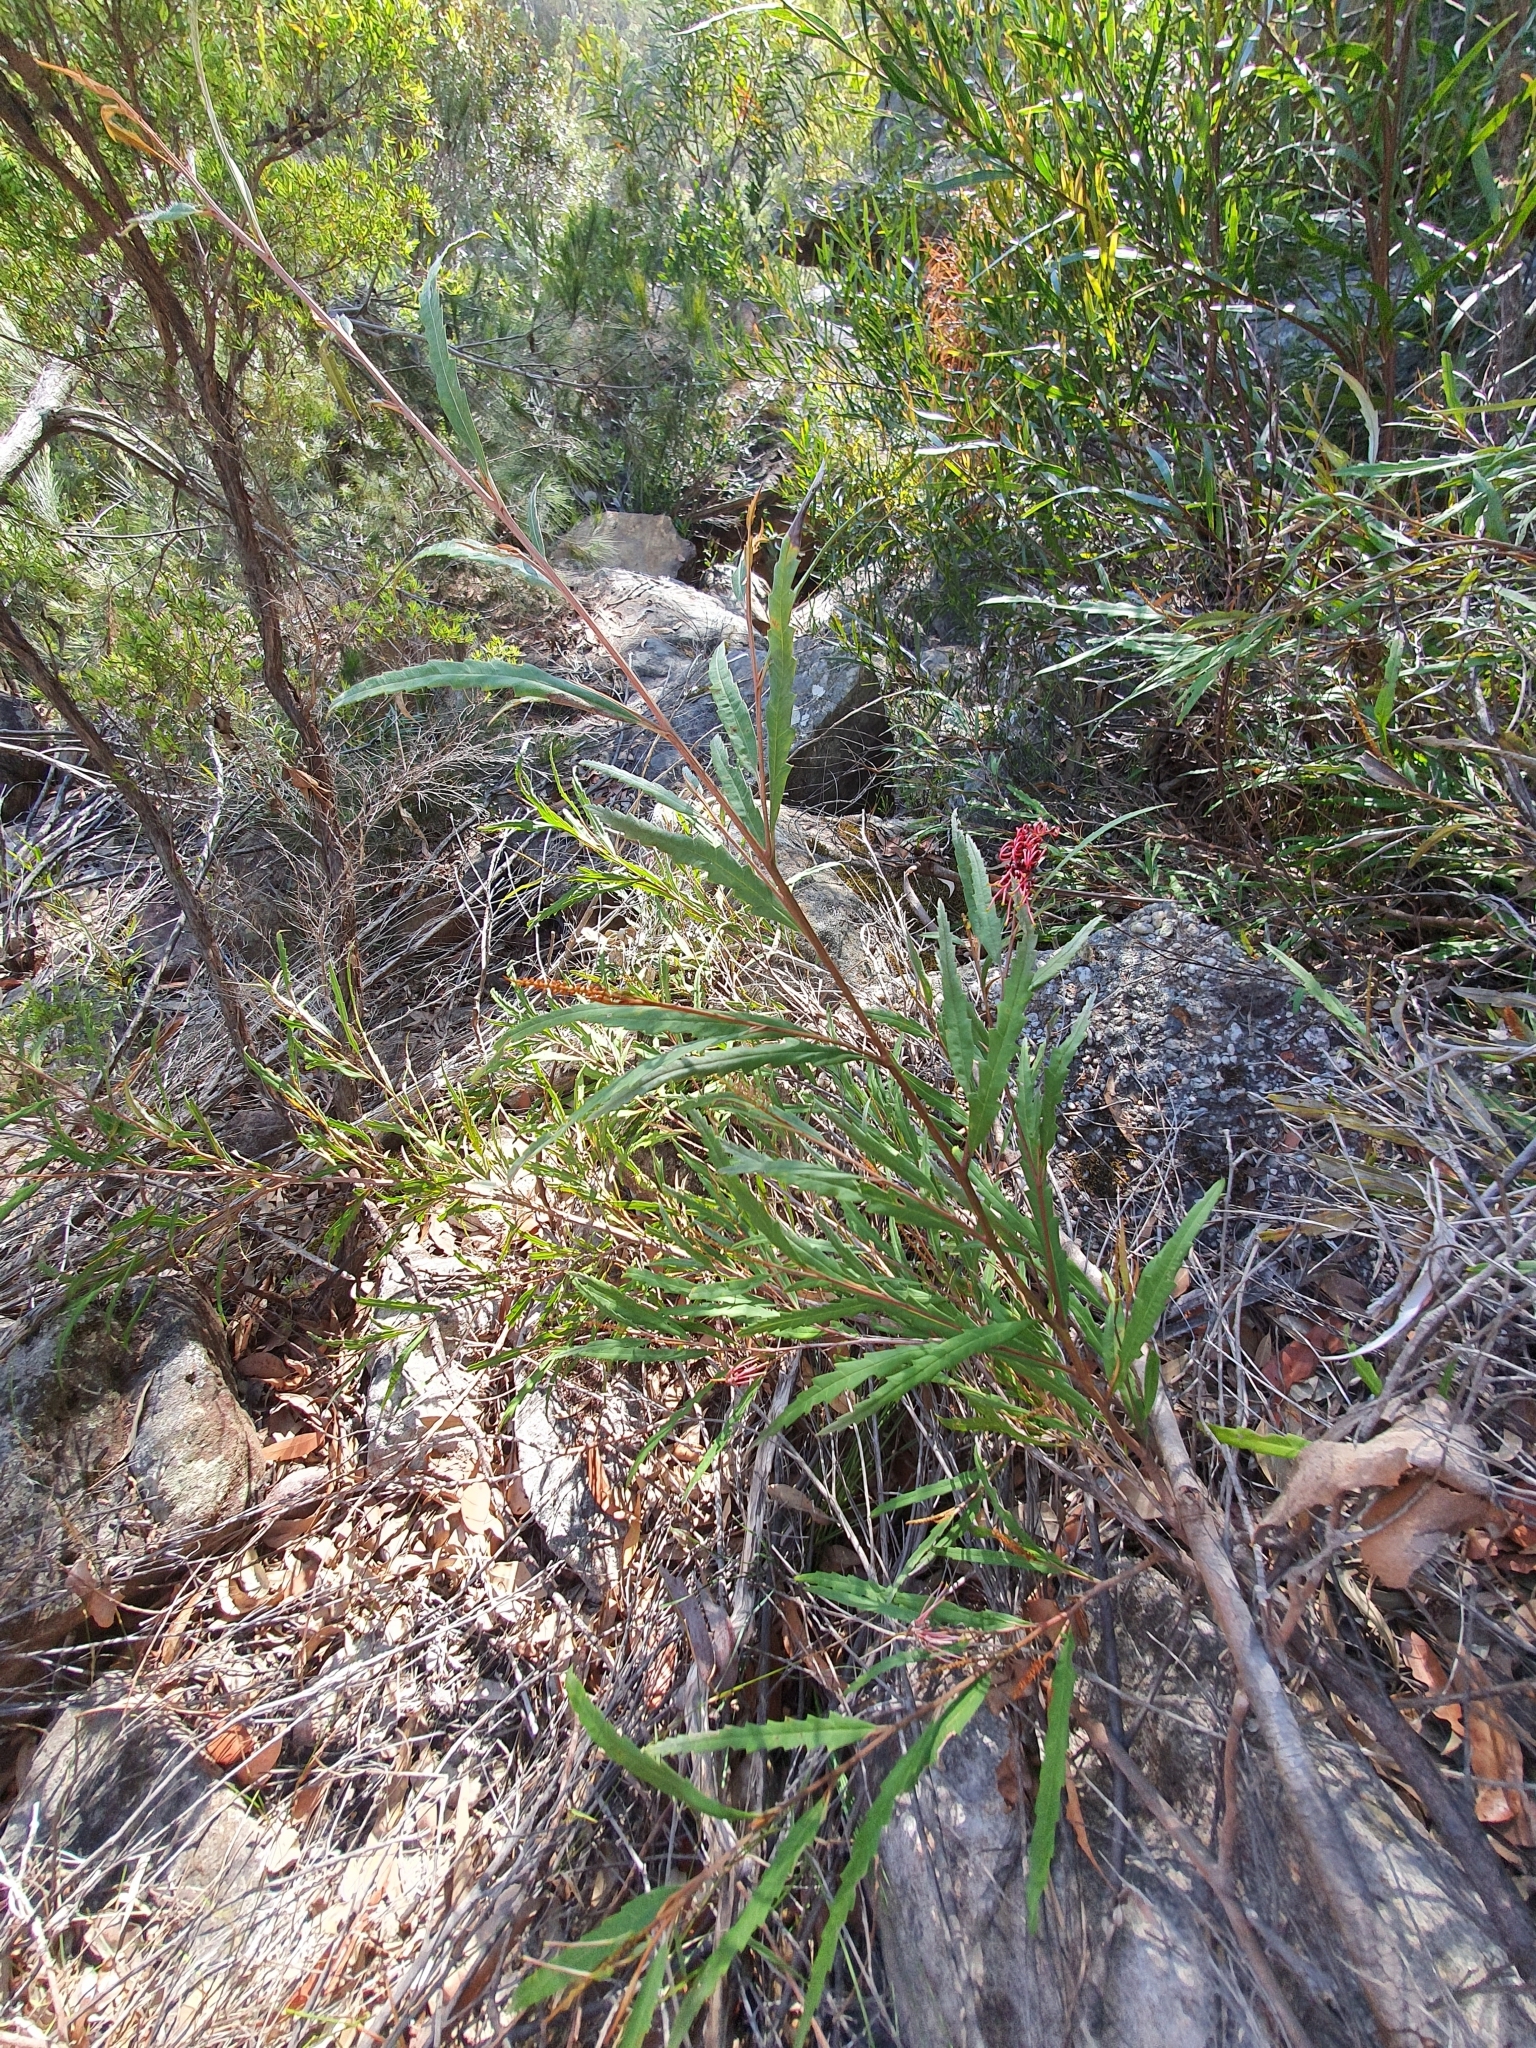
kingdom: Plantae
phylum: Tracheophyta
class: Magnoliopsida
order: Proteales
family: Proteaceae
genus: Grevillea
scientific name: Grevillea longifolia
